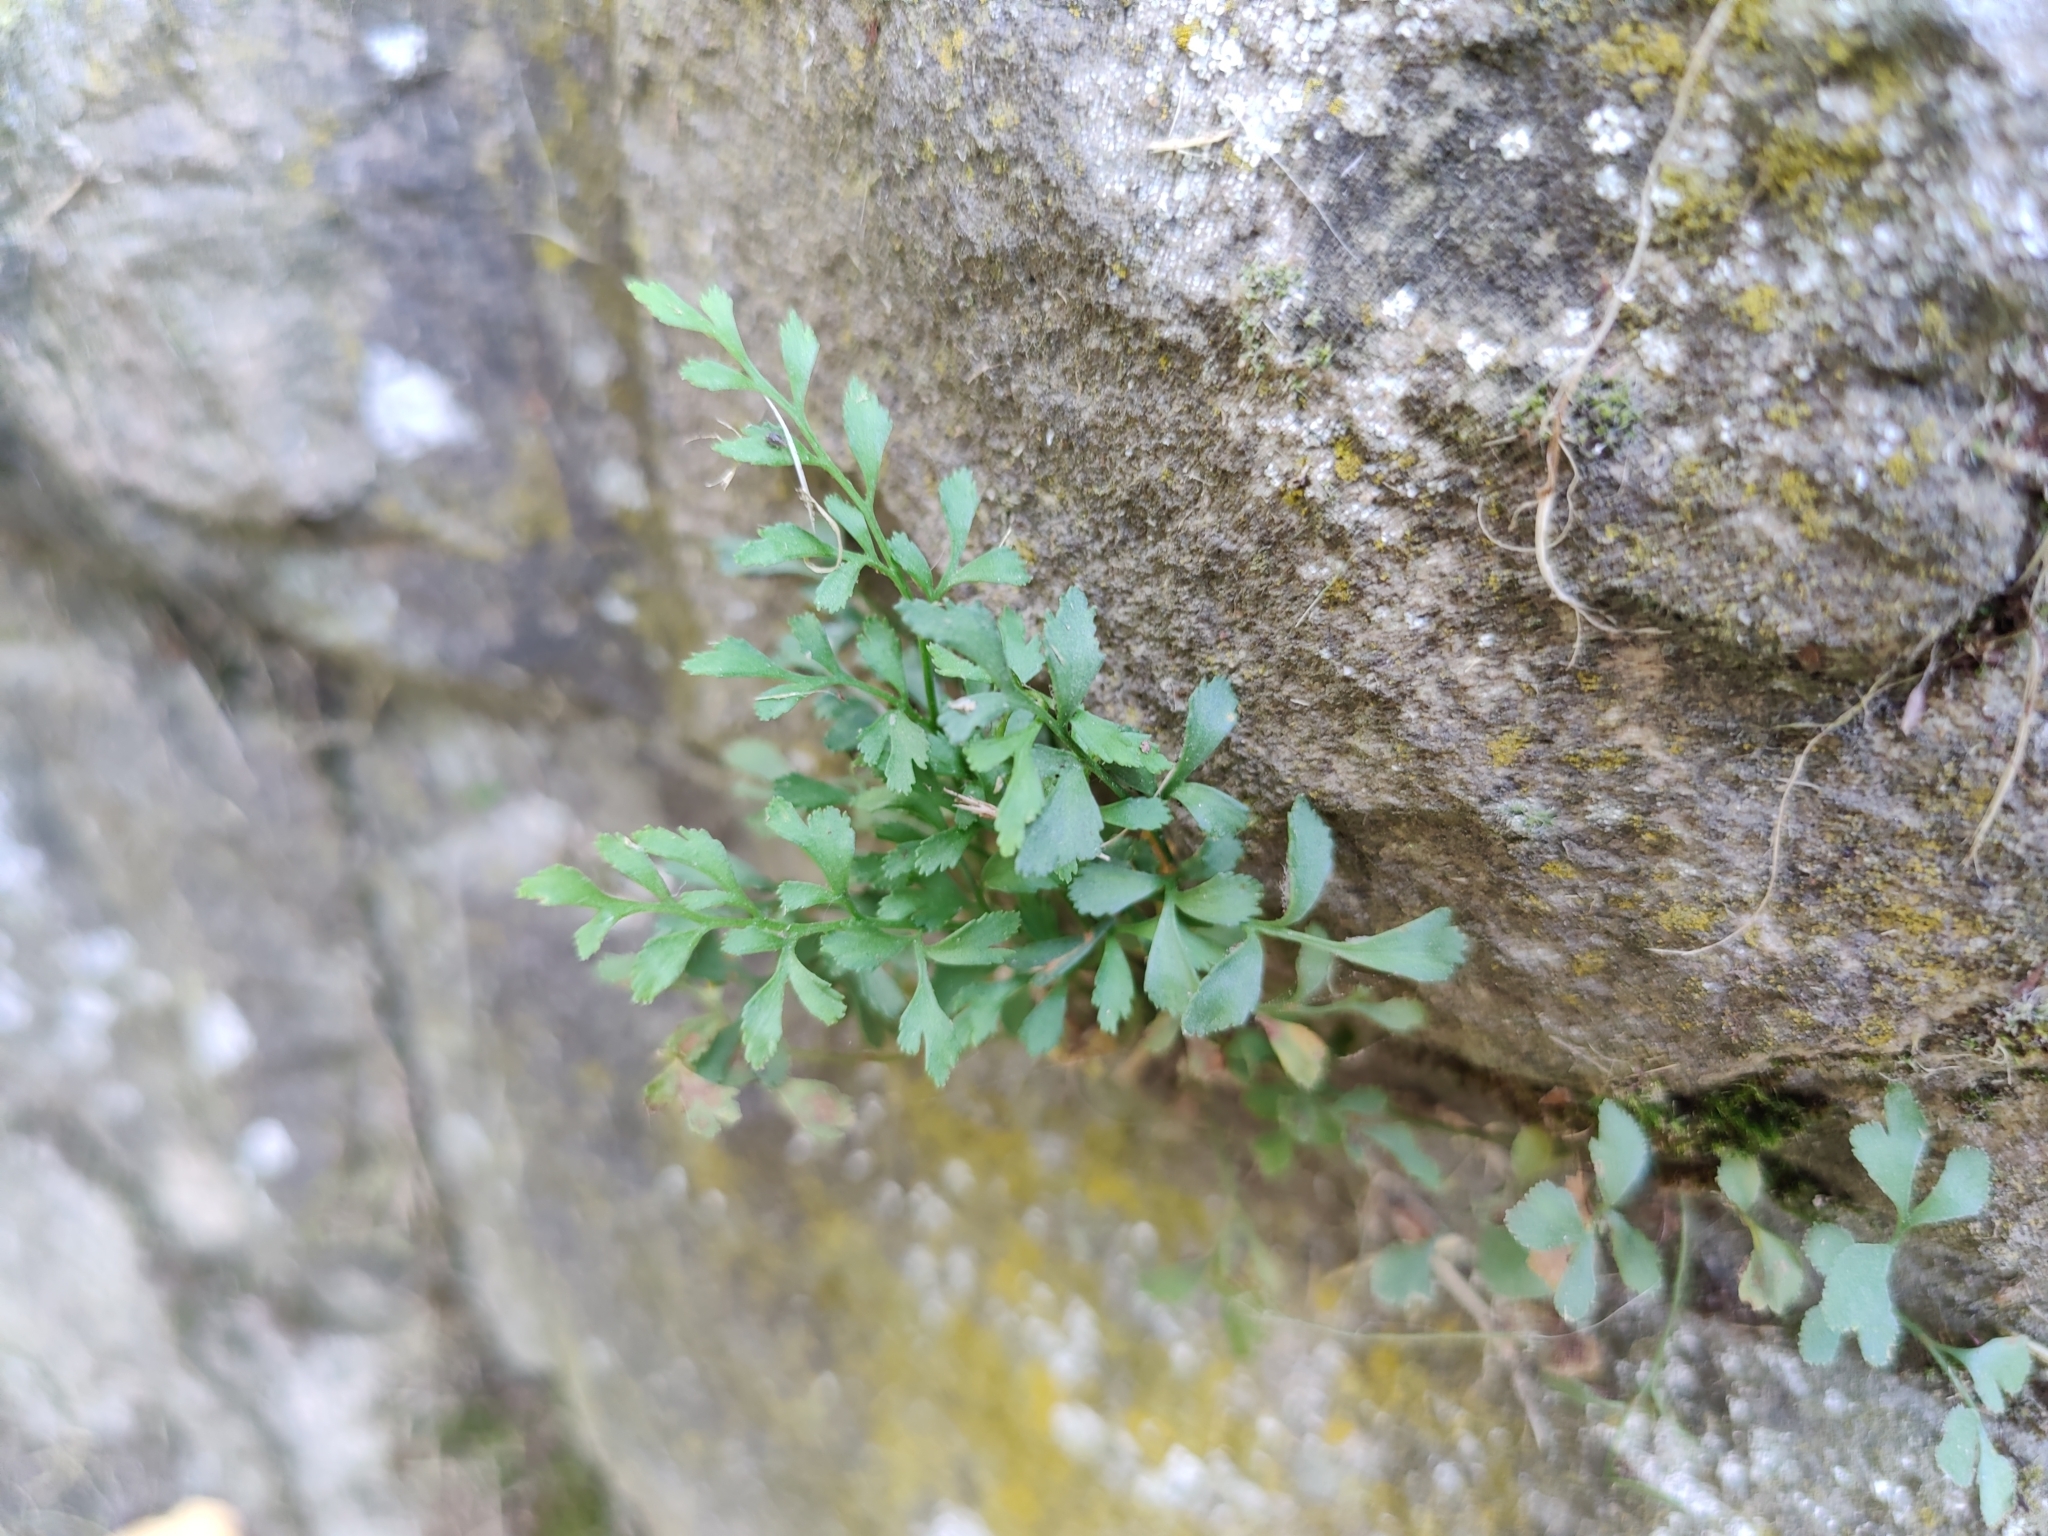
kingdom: Plantae
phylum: Tracheophyta
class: Polypodiopsida
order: Polypodiales
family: Aspleniaceae
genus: Asplenium
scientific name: Asplenium ruta-muraria
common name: Wall-rue
